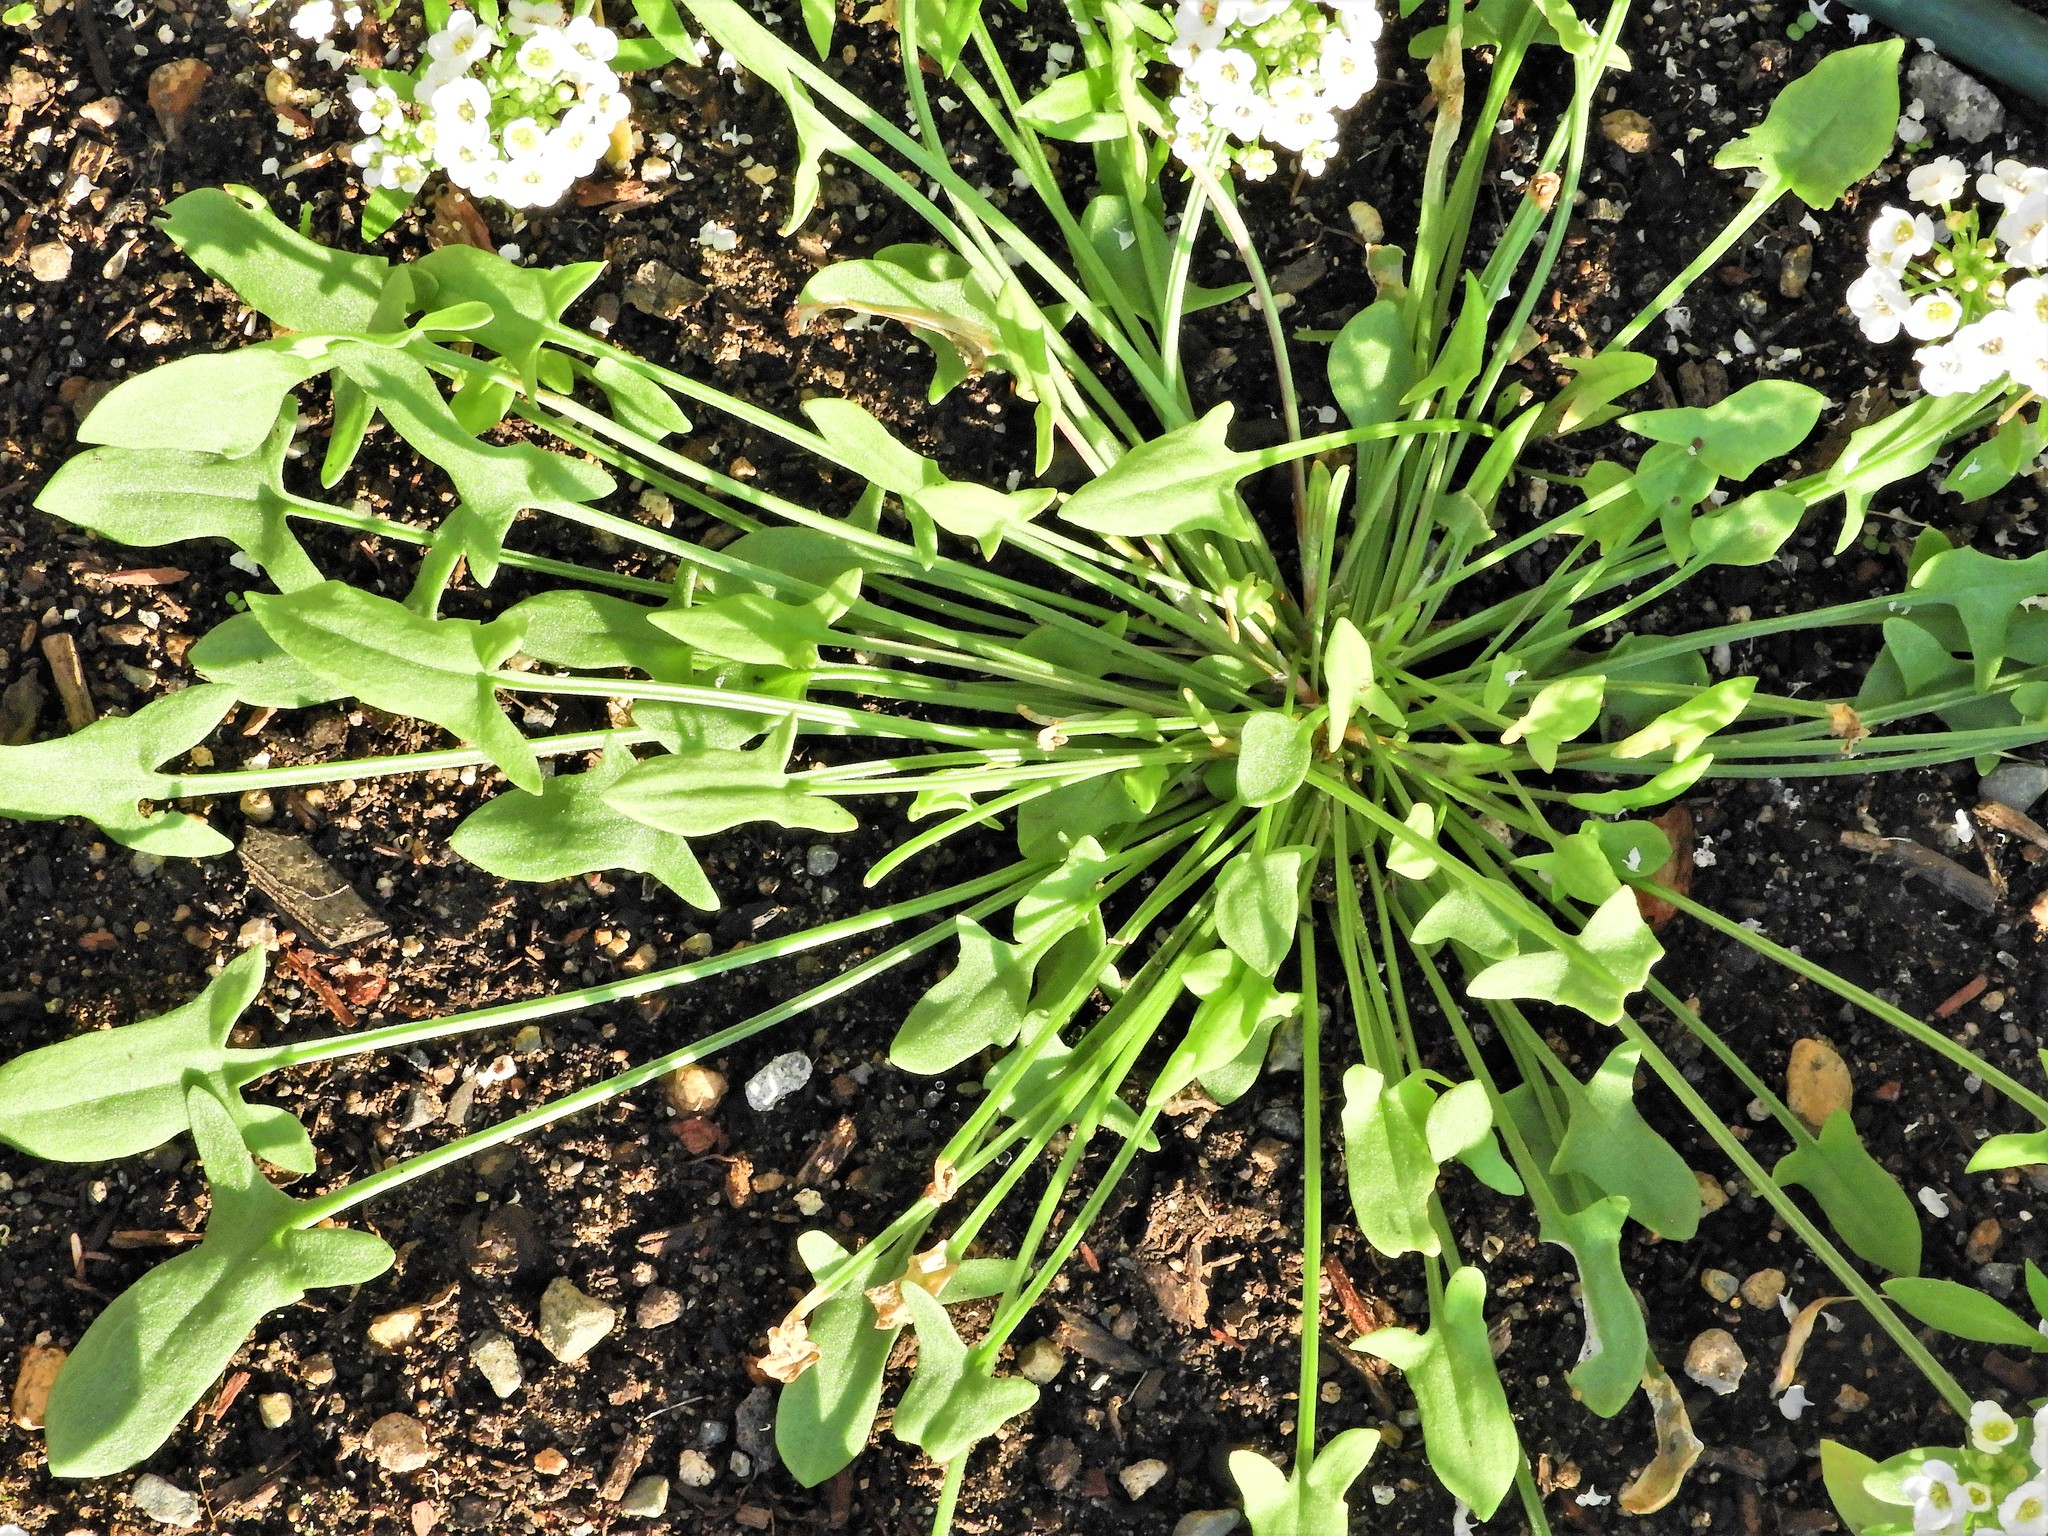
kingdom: Plantae
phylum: Tracheophyta
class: Magnoliopsida
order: Caryophyllales
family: Polygonaceae
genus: Rumex
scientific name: Rumex acetosella
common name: Common sheep sorrel
